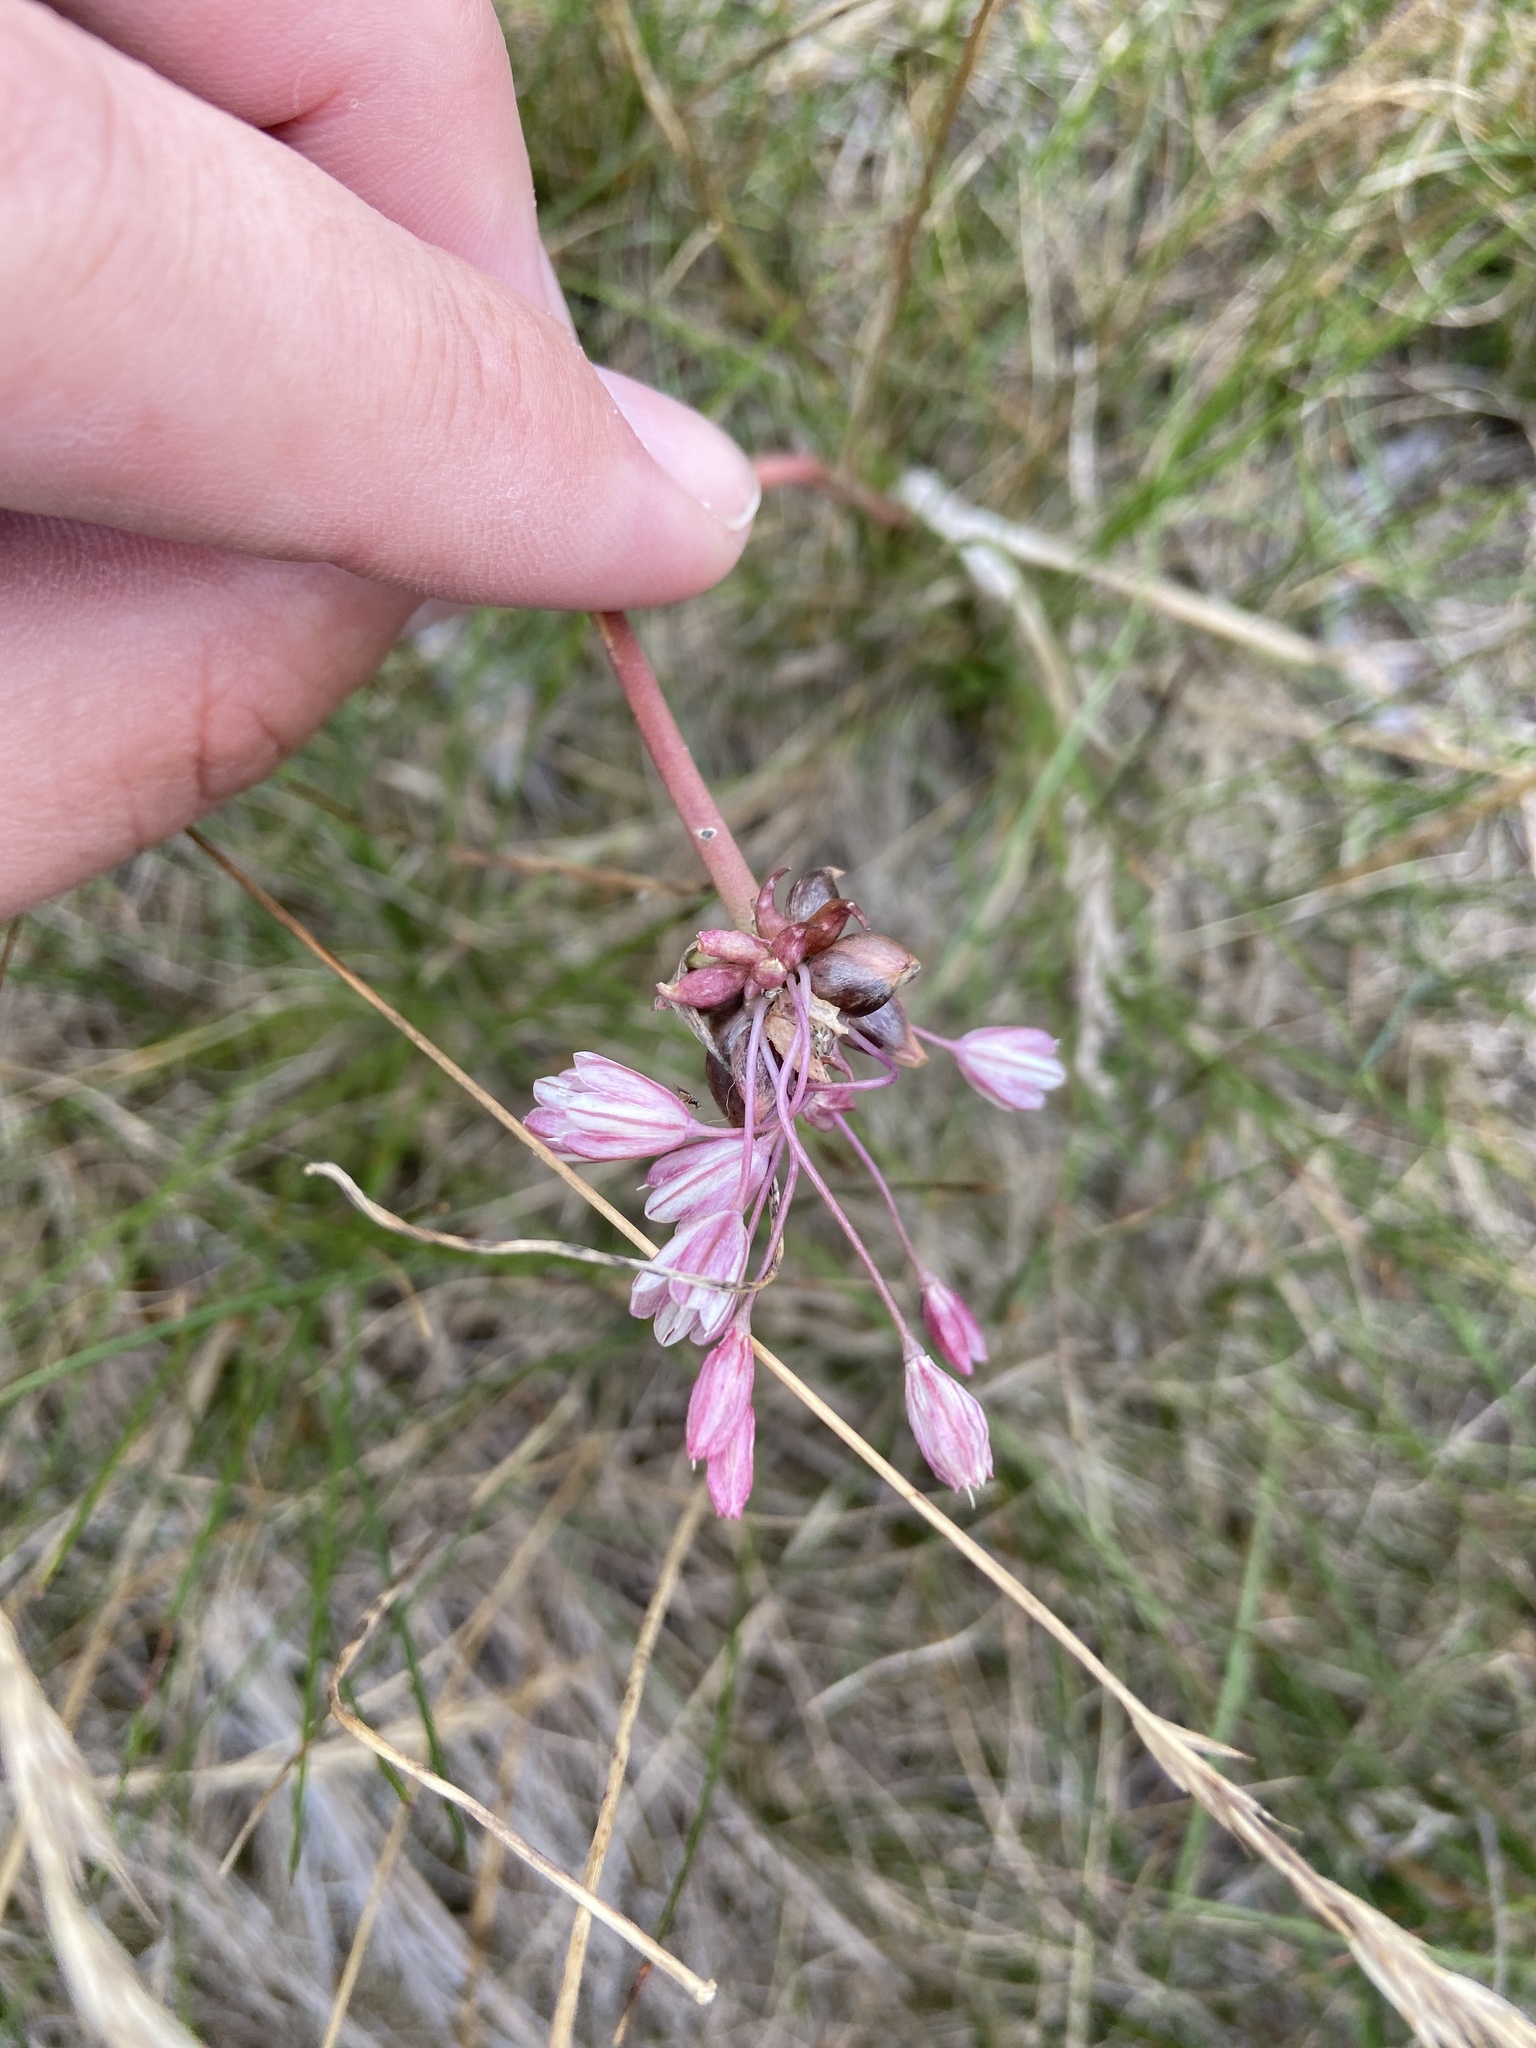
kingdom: Plantae
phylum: Tracheophyta
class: Liliopsida
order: Asparagales
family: Amaryllidaceae
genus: Allium
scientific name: Allium oleraceum
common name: Field garlic
